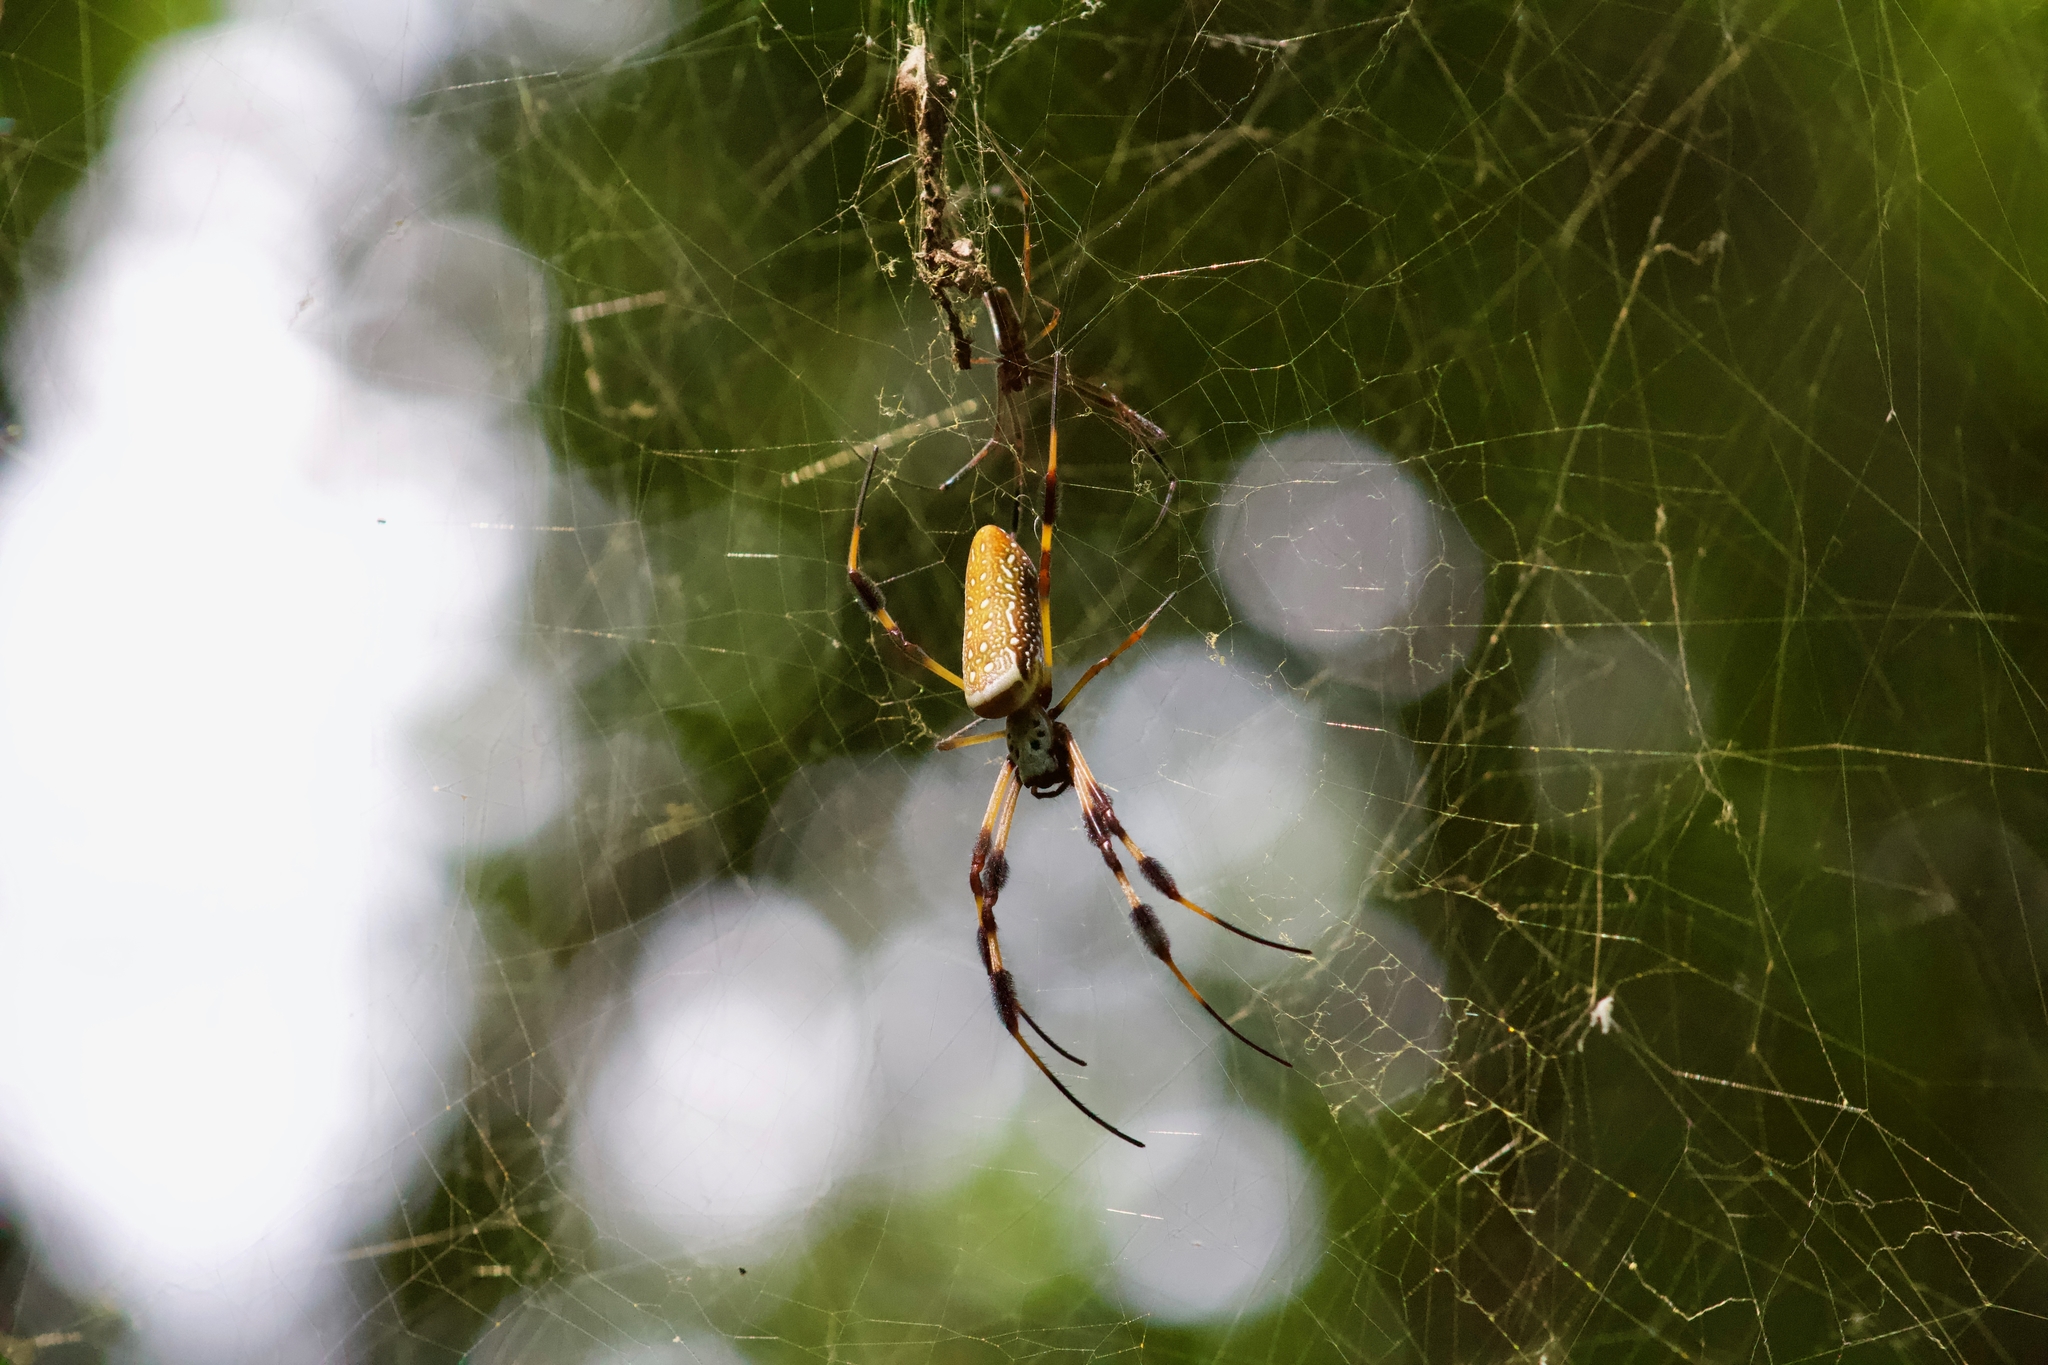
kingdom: Animalia
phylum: Arthropoda
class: Arachnida
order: Araneae
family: Araneidae
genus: Trichonephila
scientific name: Trichonephila clavipes
